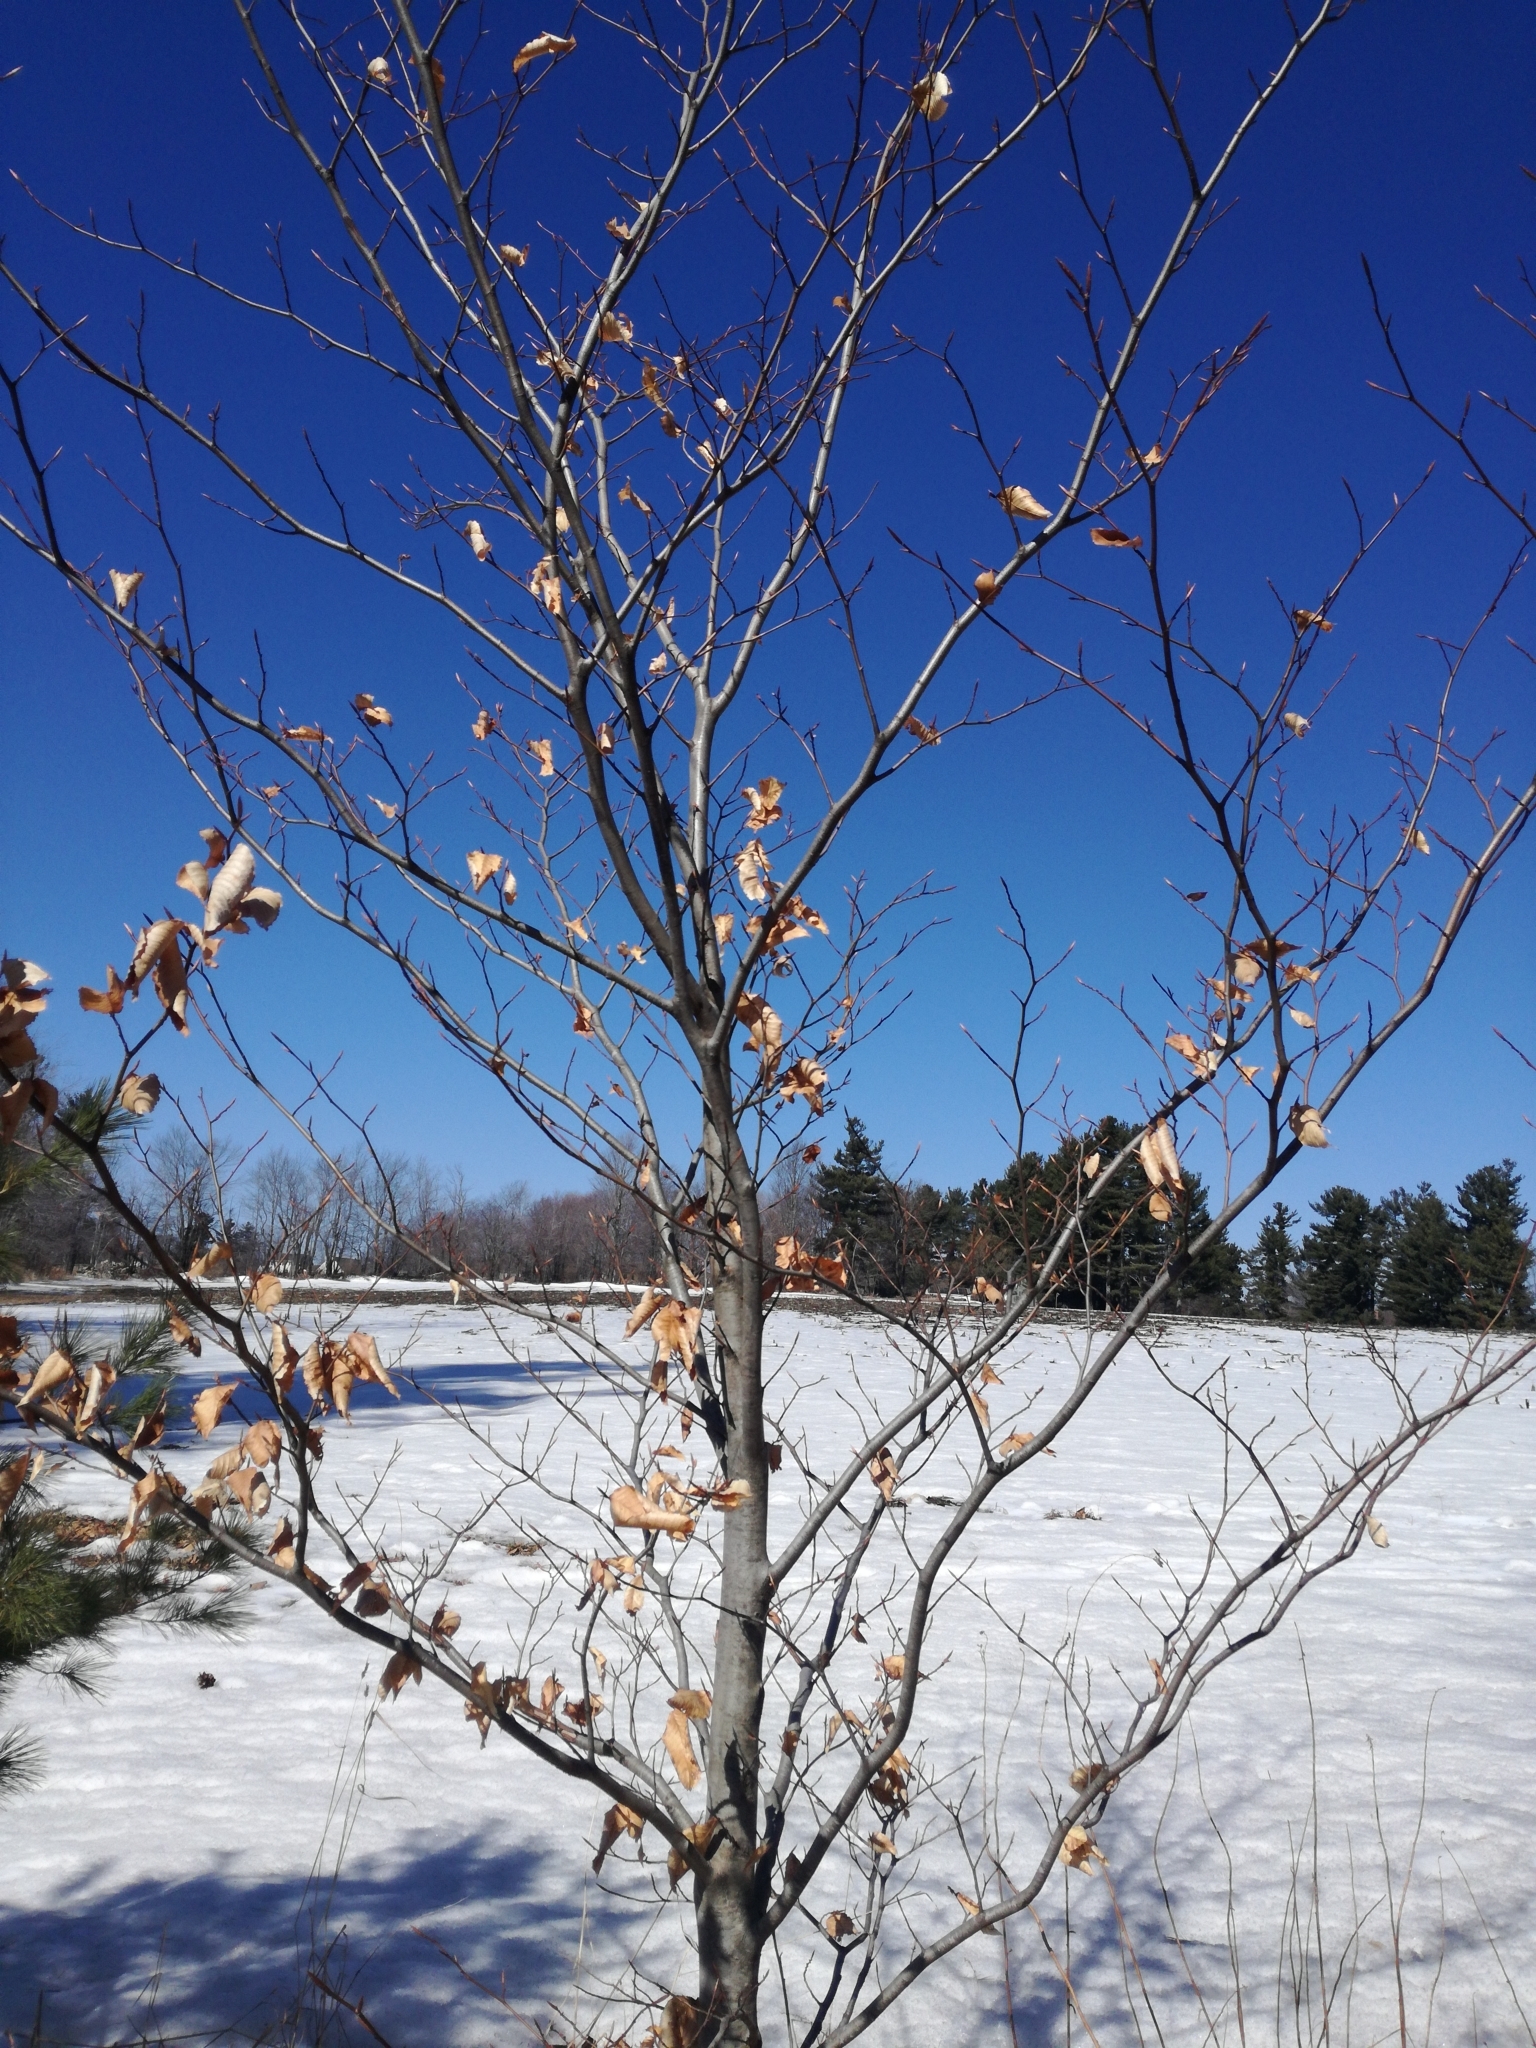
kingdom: Plantae
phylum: Tracheophyta
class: Magnoliopsida
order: Fagales
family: Fagaceae
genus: Fagus
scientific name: Fagus grandifolia
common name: American beech
